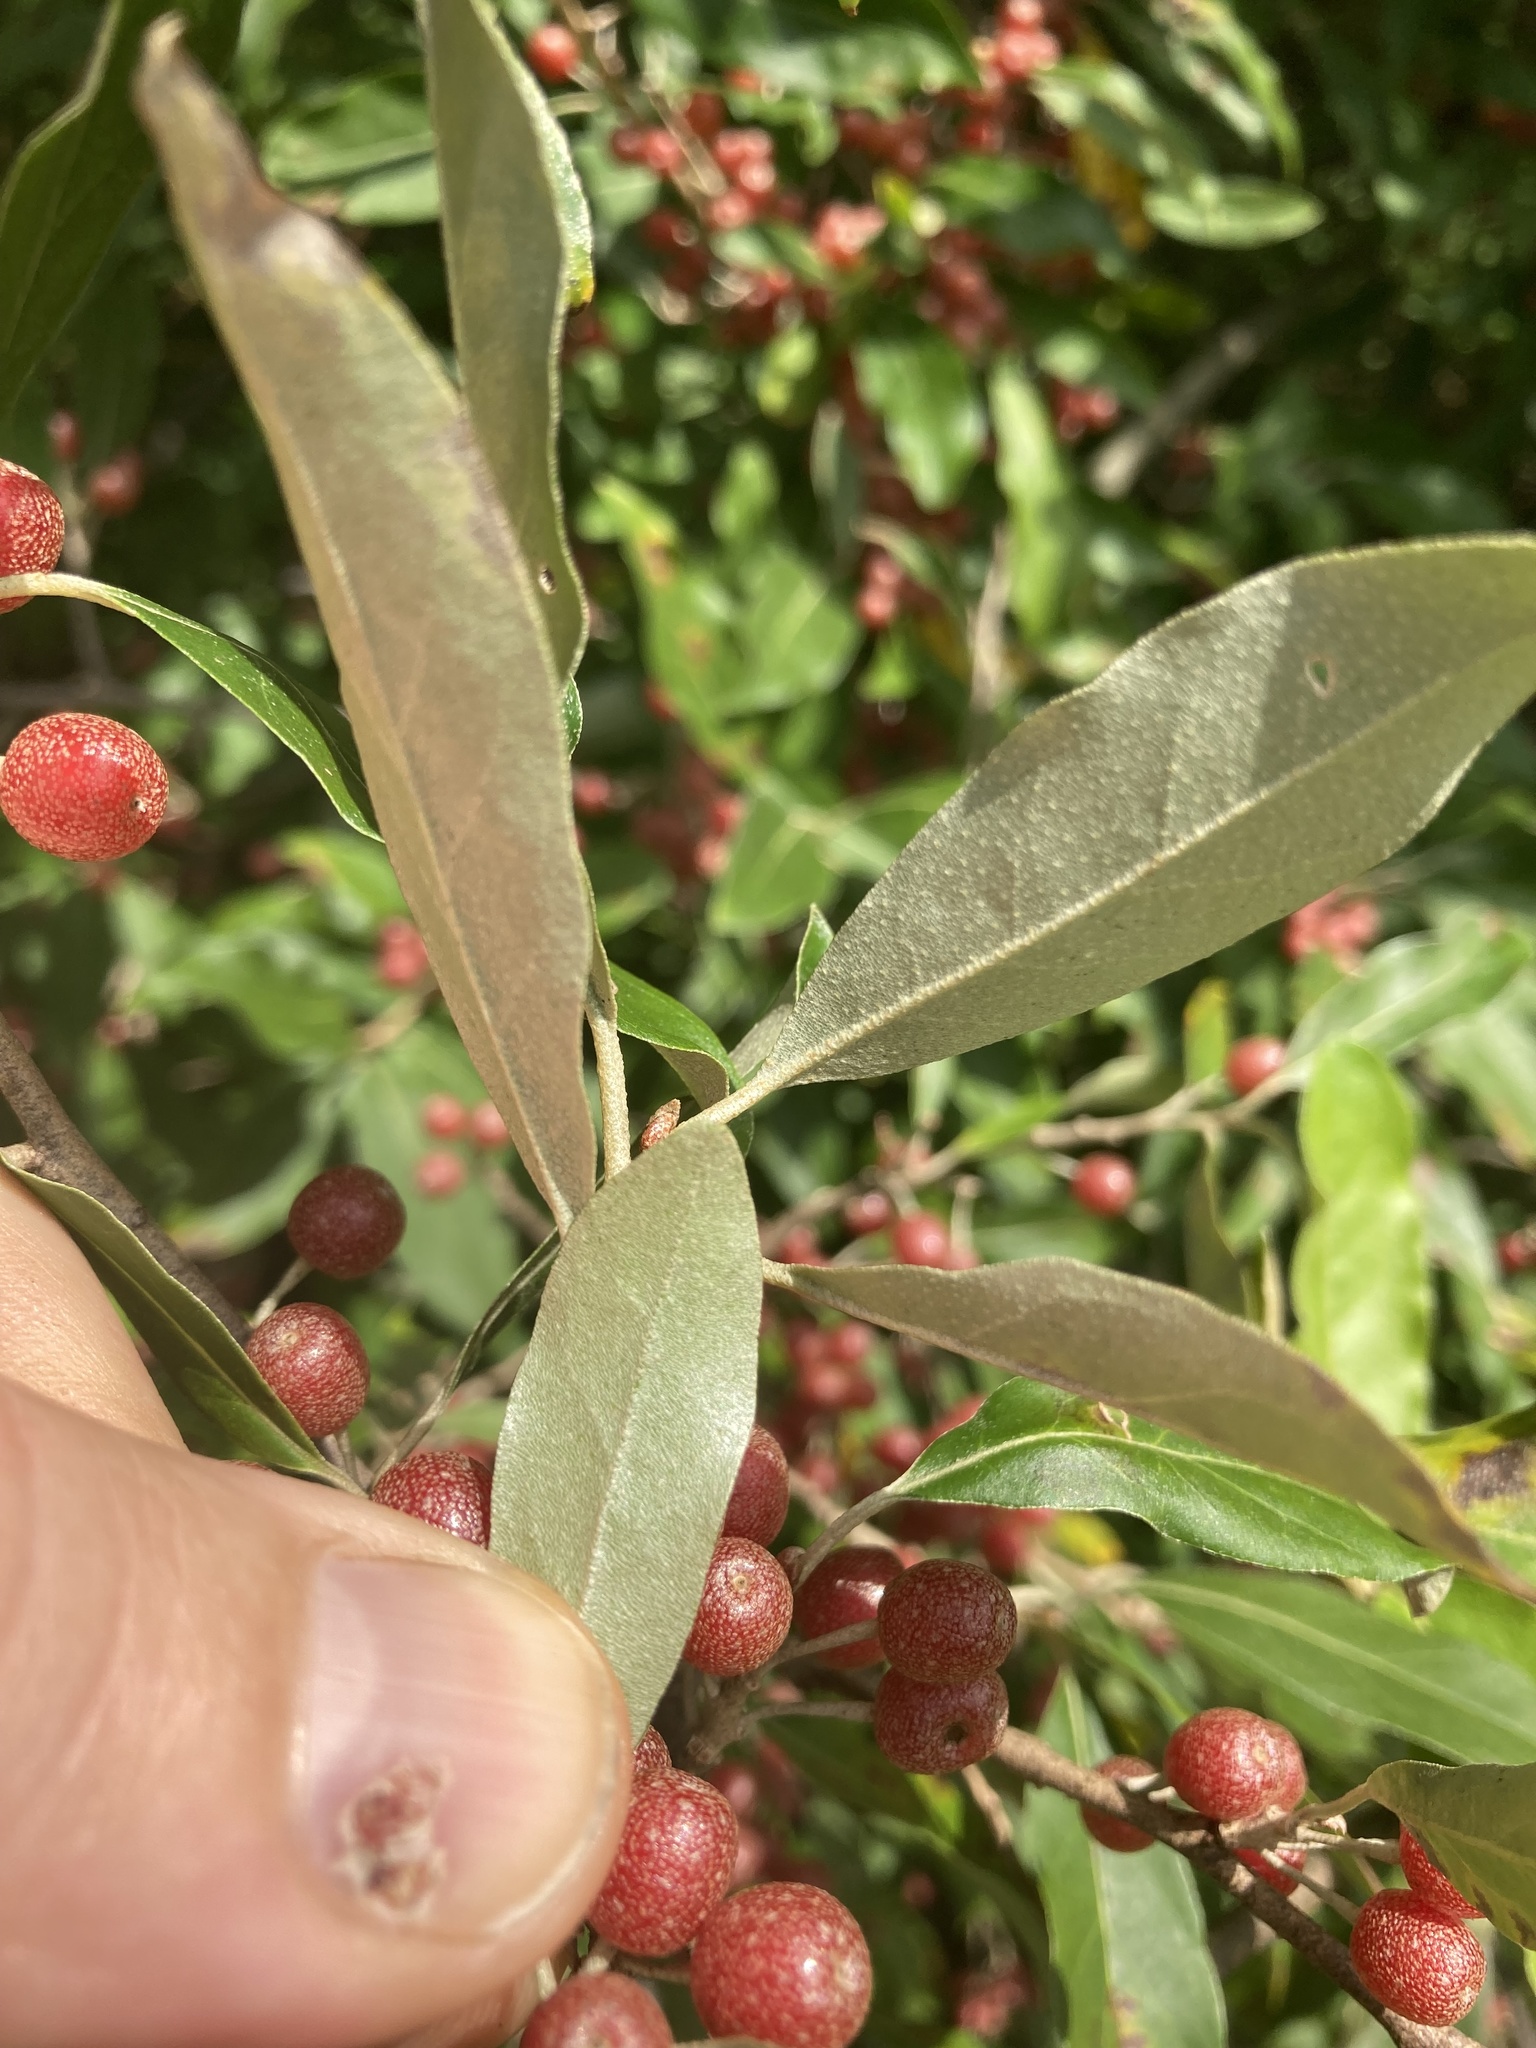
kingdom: Plantae
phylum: Tracheophyta
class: Magnoliopsida
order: Rosales
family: Elaeagnaceae
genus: Elaeagnus
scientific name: Elaeagnus umbellata
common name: Autumn olive
